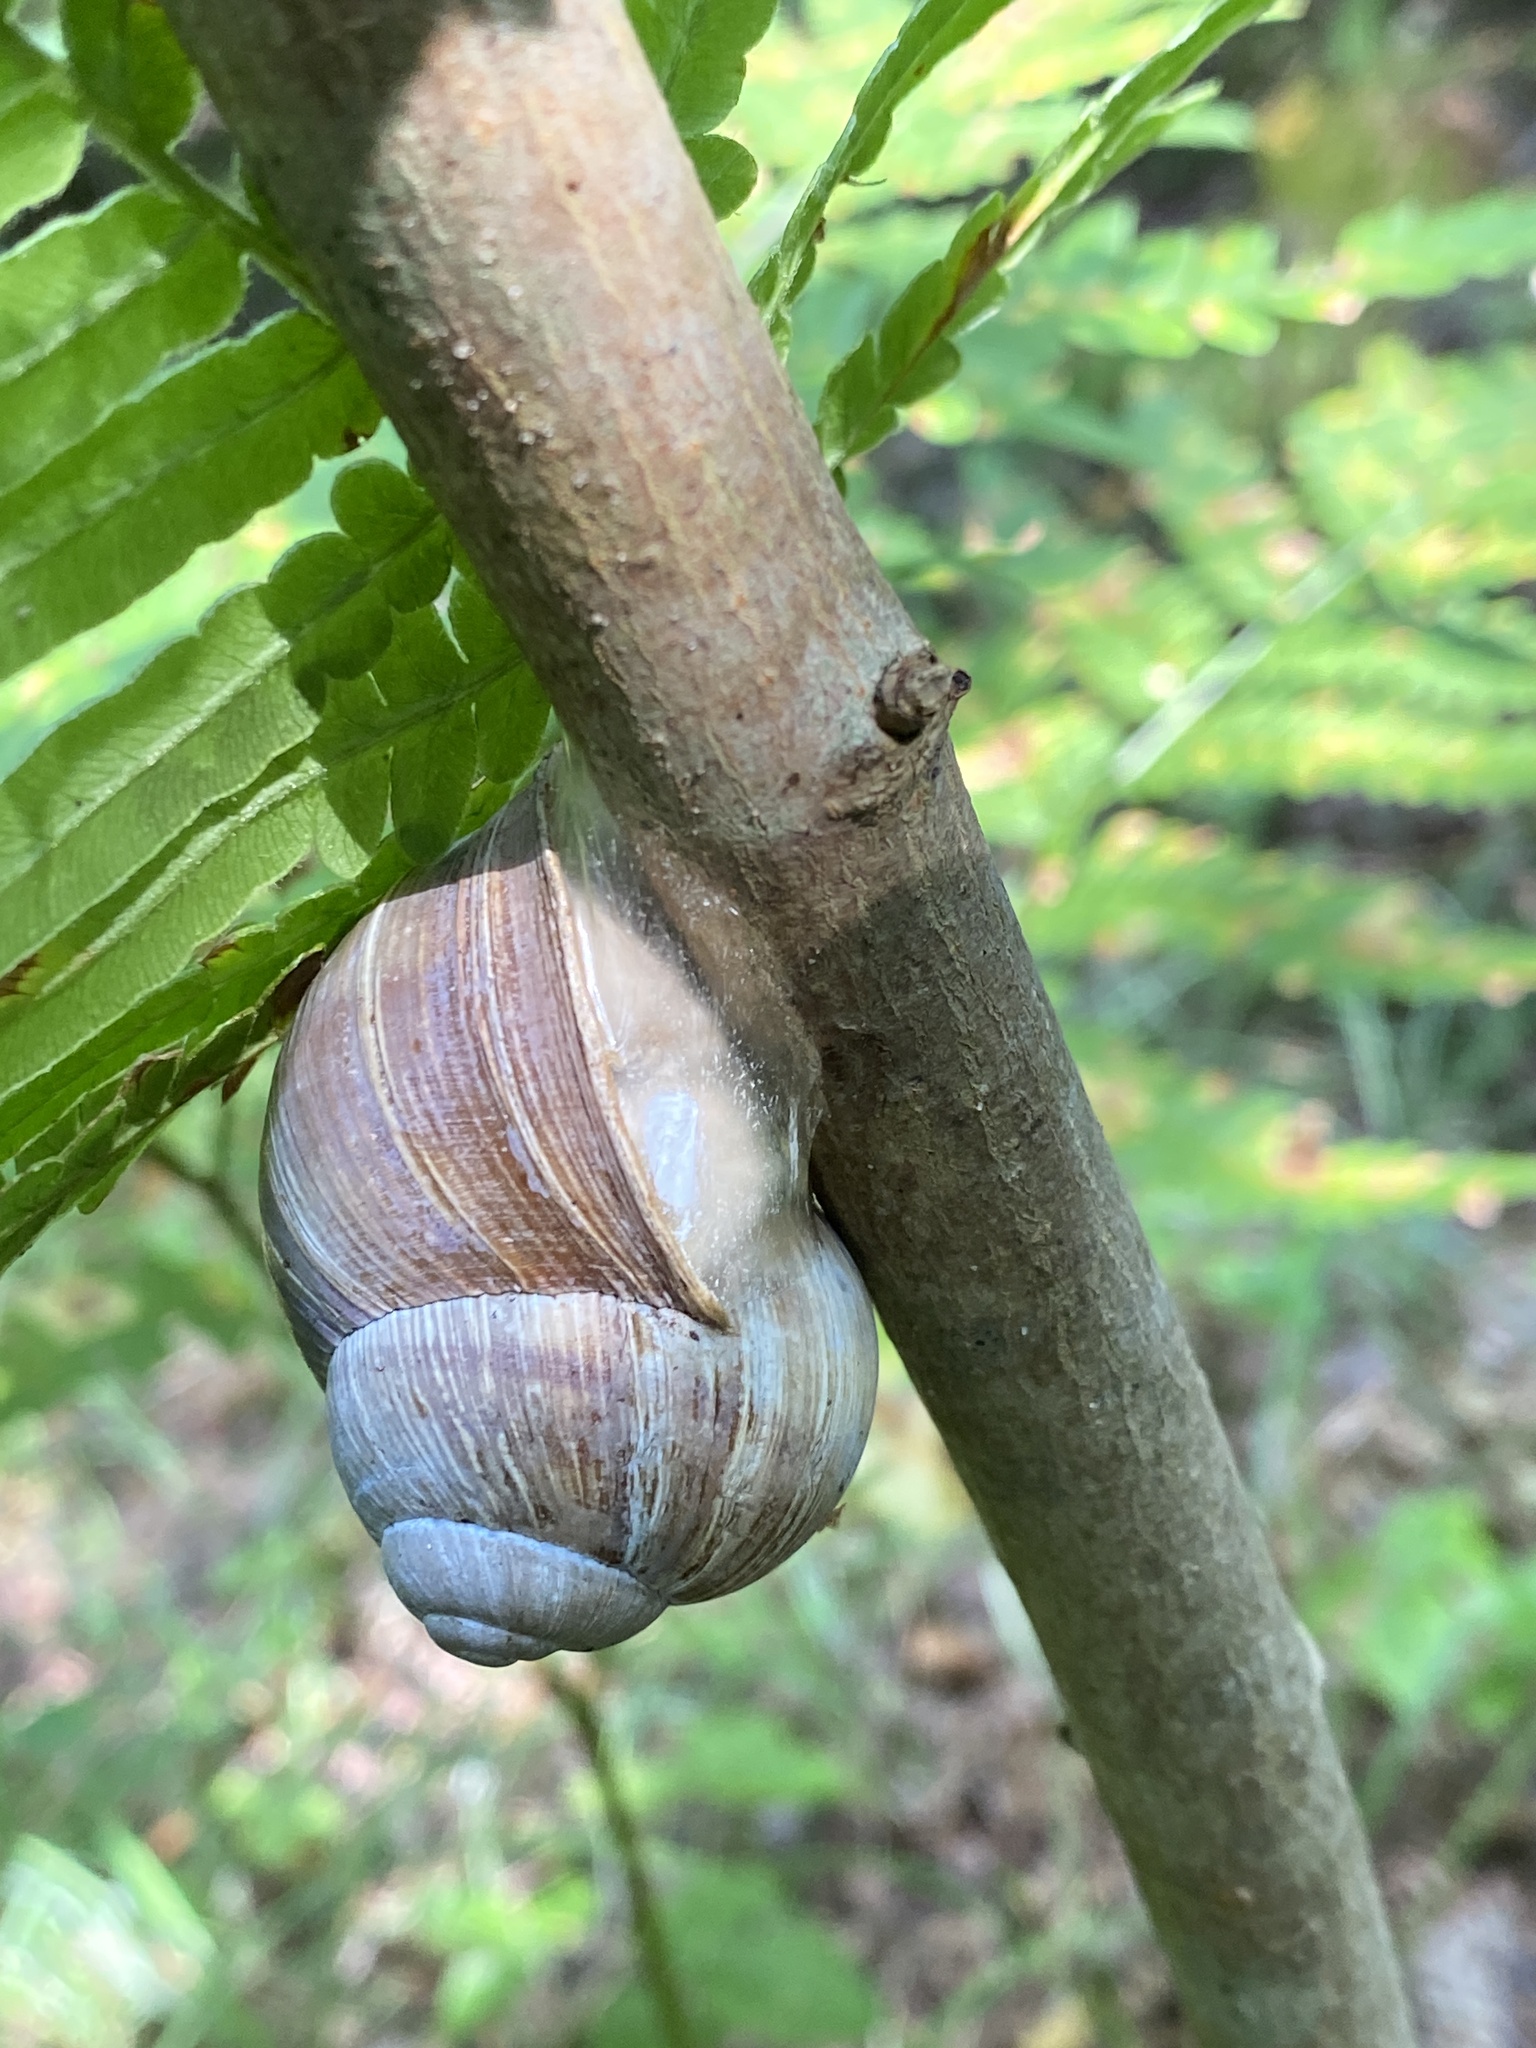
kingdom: Animalia
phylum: Mollusca
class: Gastropoda
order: Stylommatophora
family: Helicidae
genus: Helix
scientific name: Helix pomatia
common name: Roman snail
